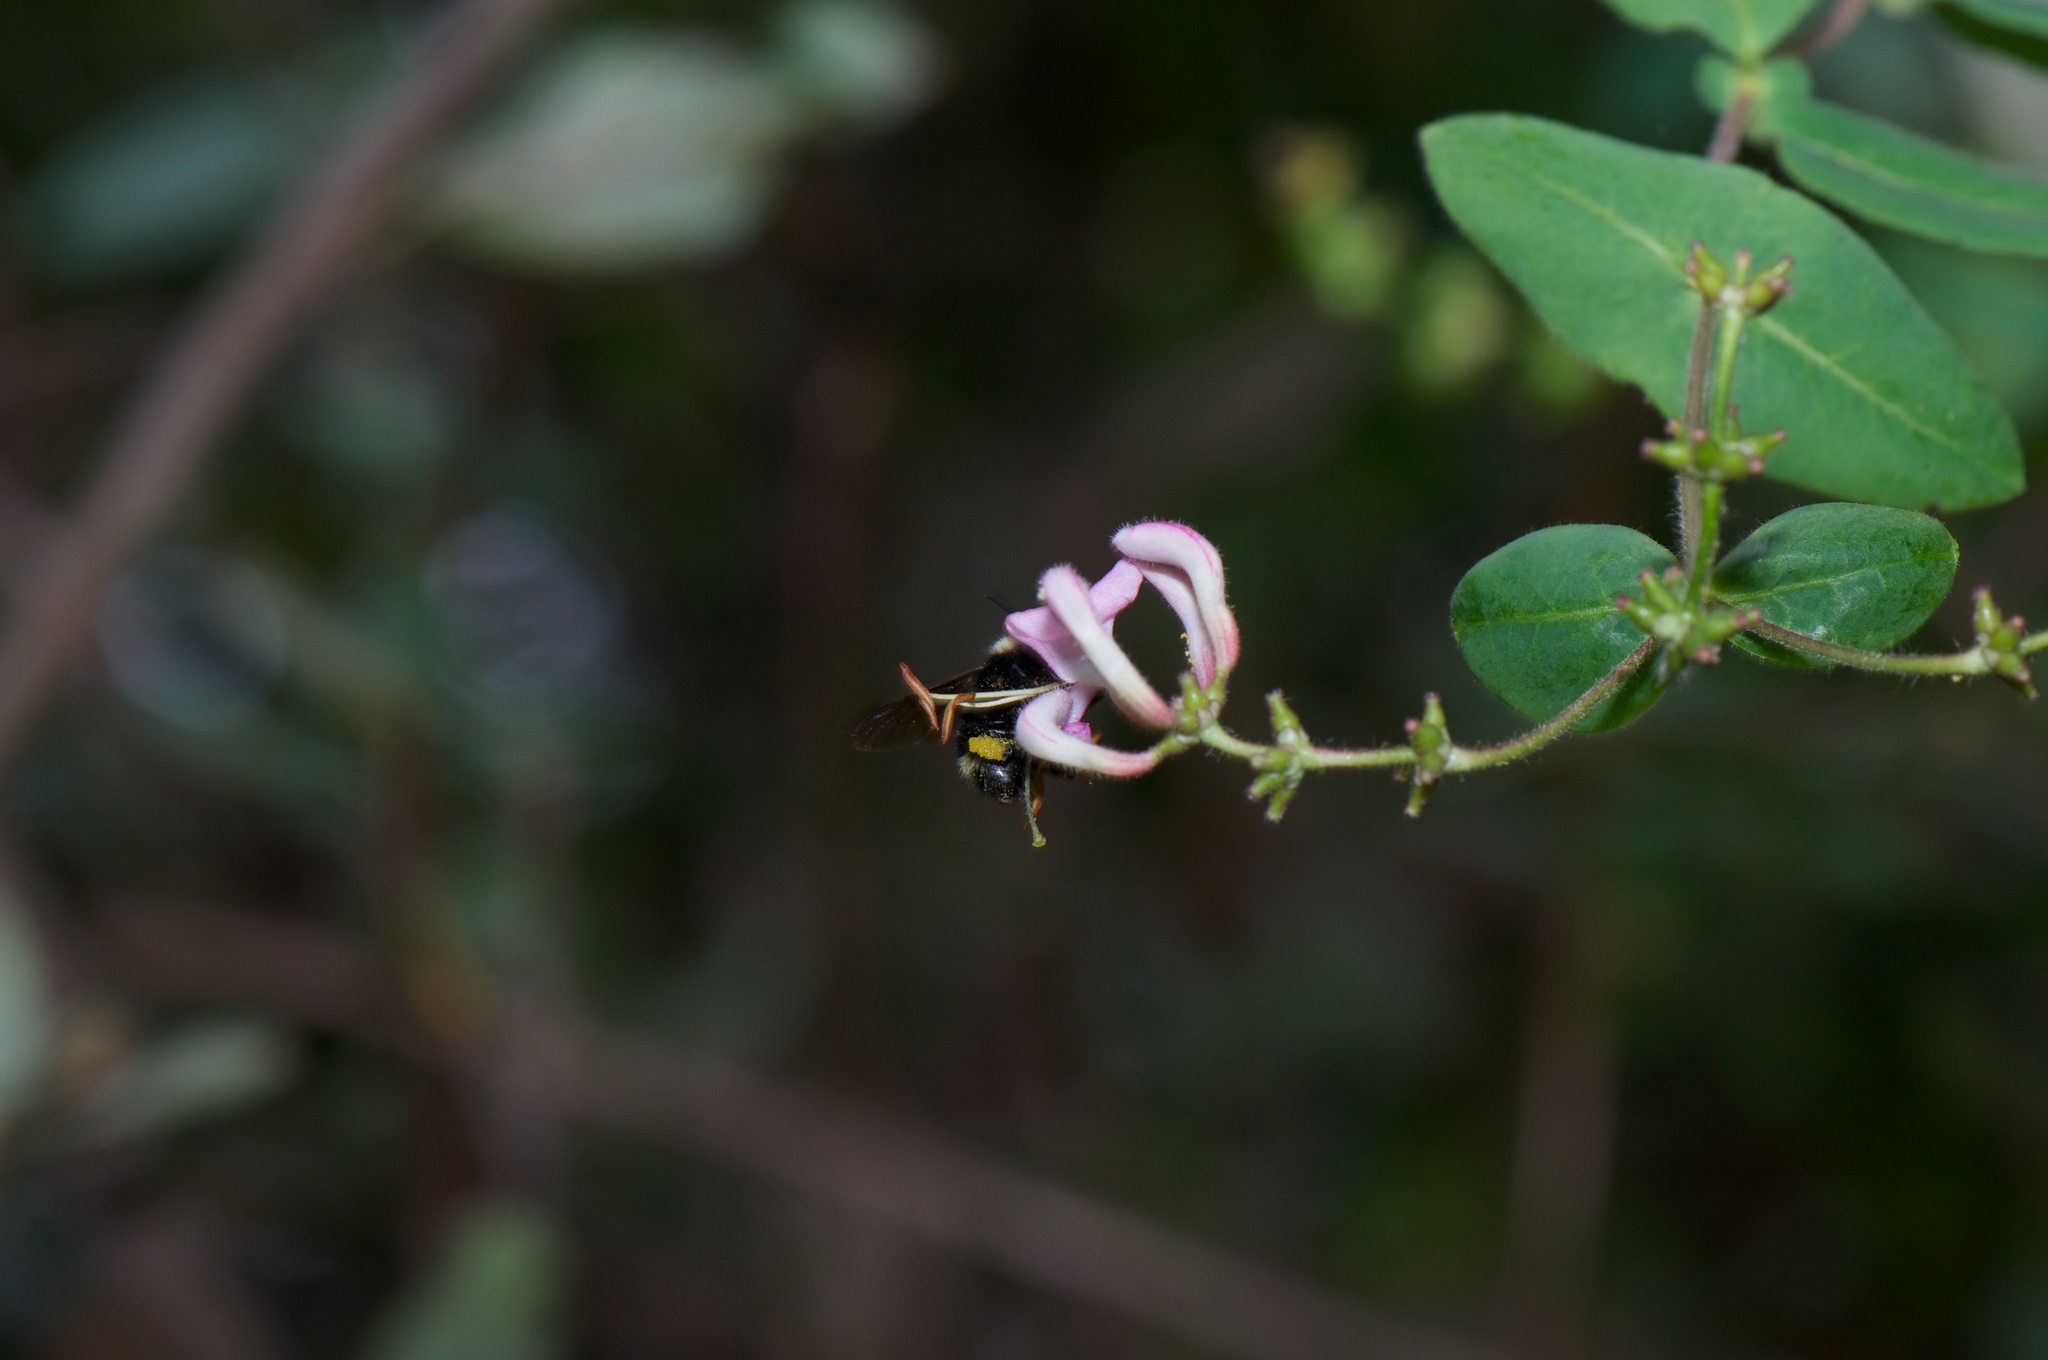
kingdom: Plantae
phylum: Tracheophyta
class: Magnoliopsida
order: Dipsacales
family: Caprifoliaceae
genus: Lonicera
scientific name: Lonicera hispidula
